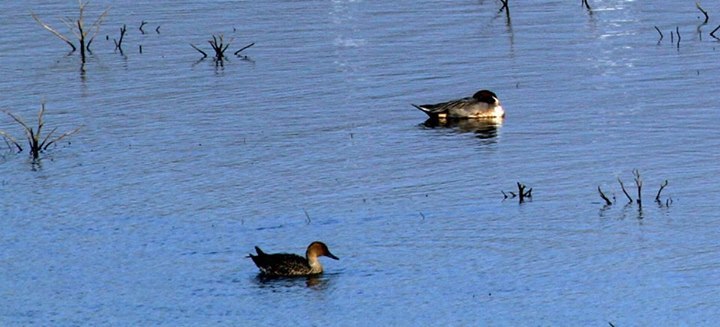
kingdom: Animalia
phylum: Chordata
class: Aves
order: Anseriformes
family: Anatidae
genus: Anas
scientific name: Anas acuta
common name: Northern pintail
